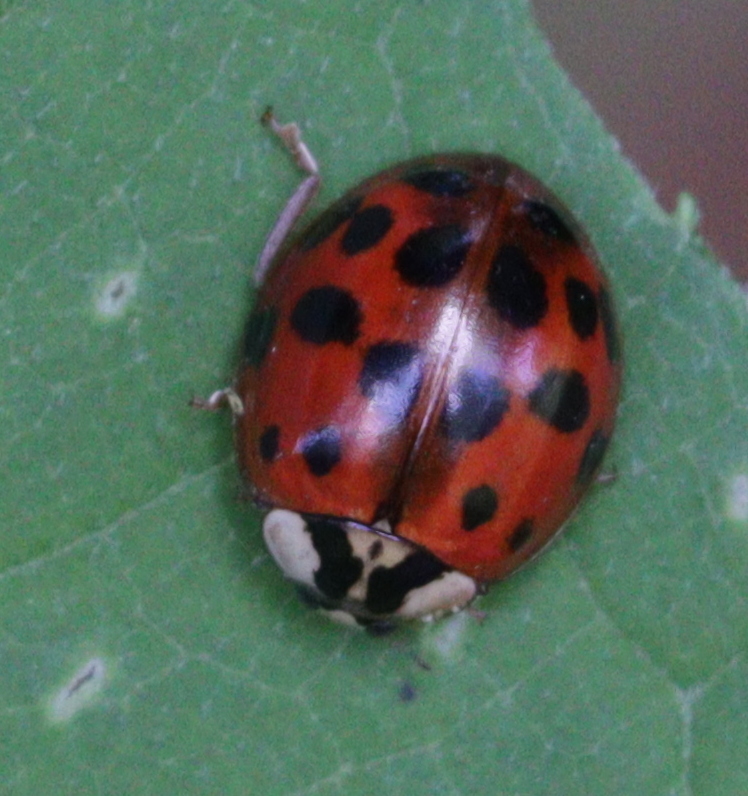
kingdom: Animalia
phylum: Arthropoda
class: Insecta
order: Coleoptera
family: Coccinellidae
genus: Harmonia
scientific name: Harmonia axyridis
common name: Harlequin ladybird
